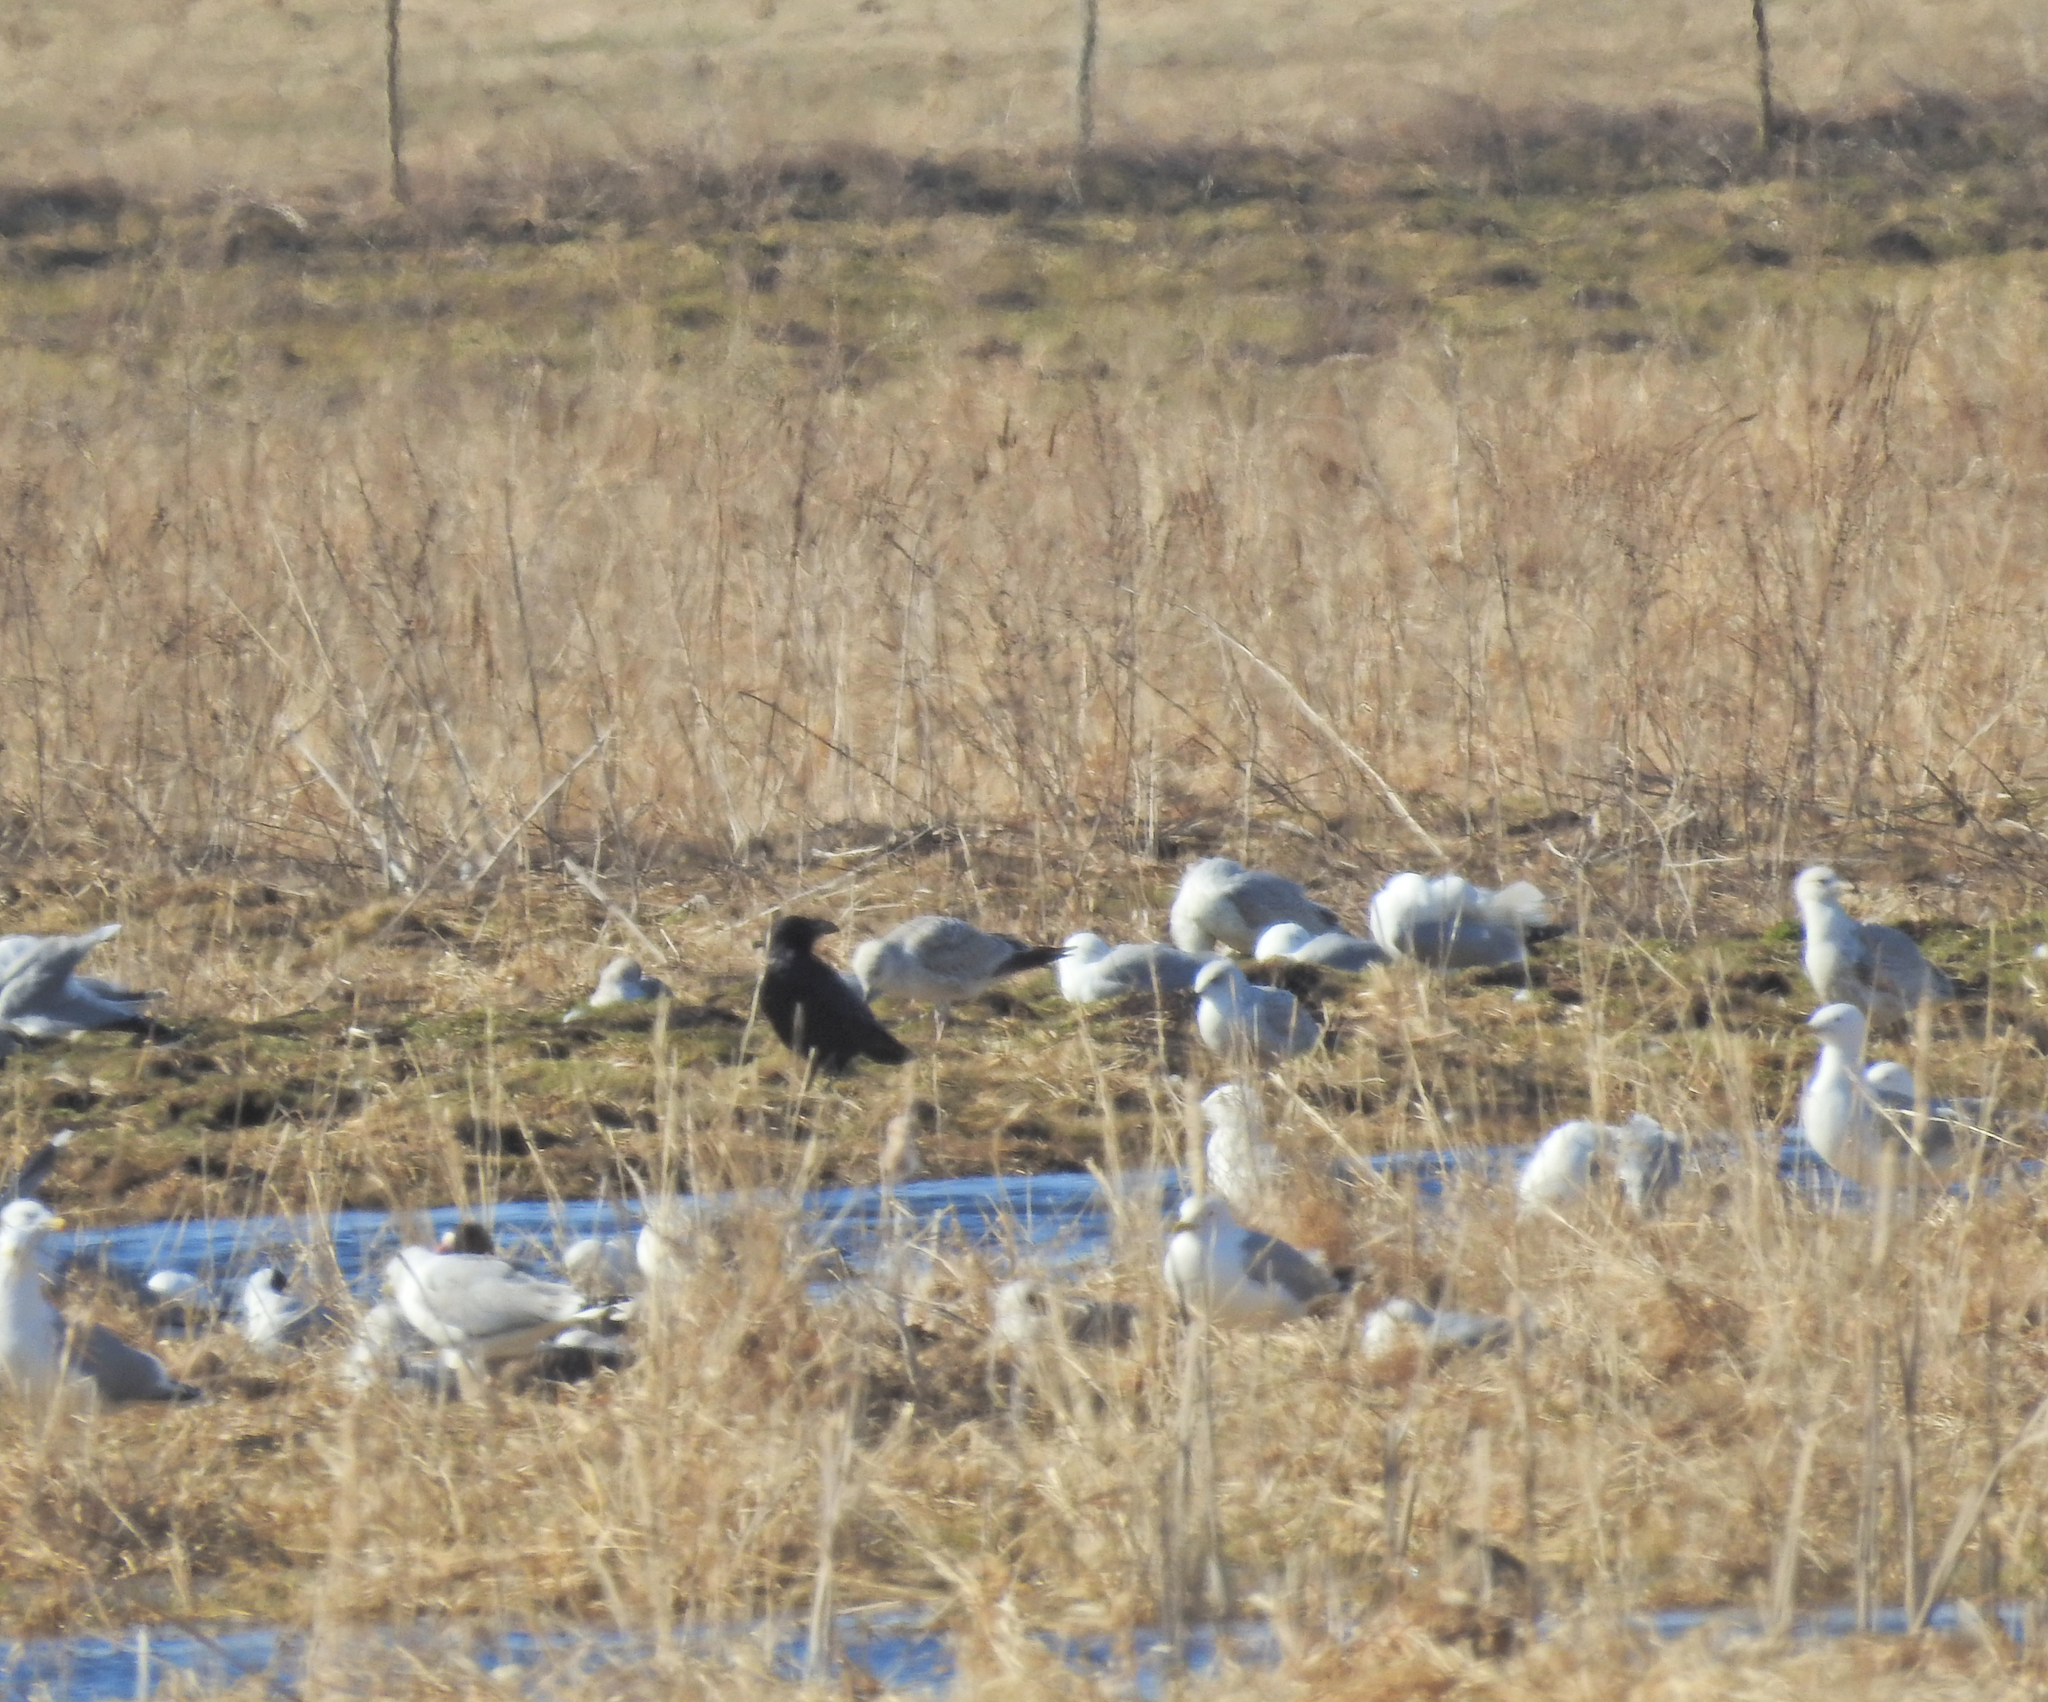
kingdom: Animalia
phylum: Chordata
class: Aves
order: Passeriformes
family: Corvidae
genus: Corvus
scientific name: Corvus corax
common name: Common raven
